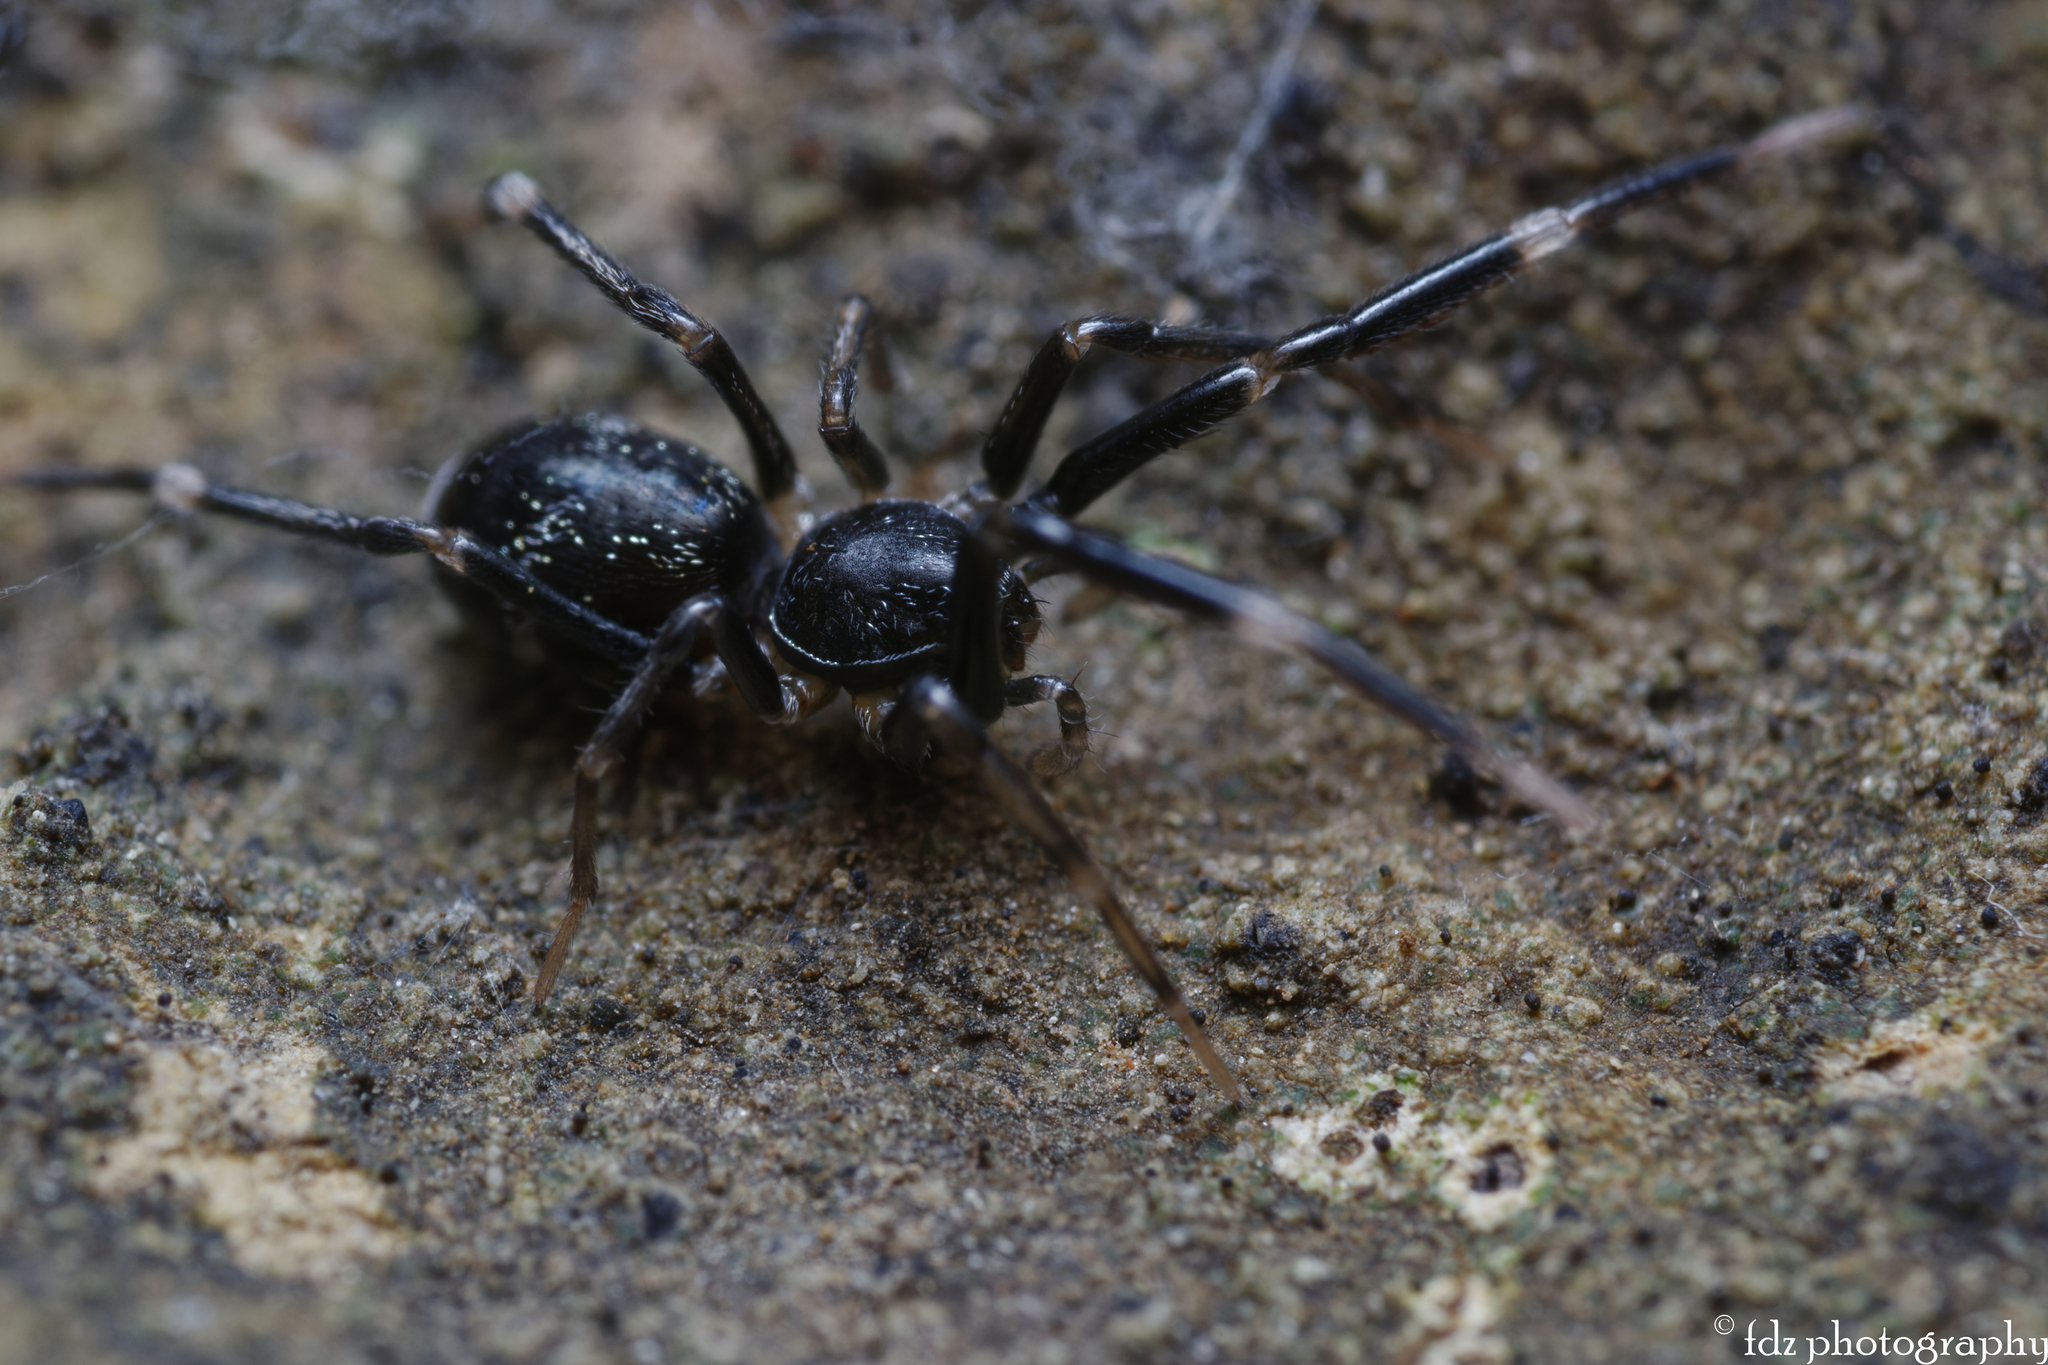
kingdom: Animalia
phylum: Arthropoda
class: Arachnida
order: Araneae
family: Phrurolithidae
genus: Liophrurillus
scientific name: Liophrurillus flavitarsis
